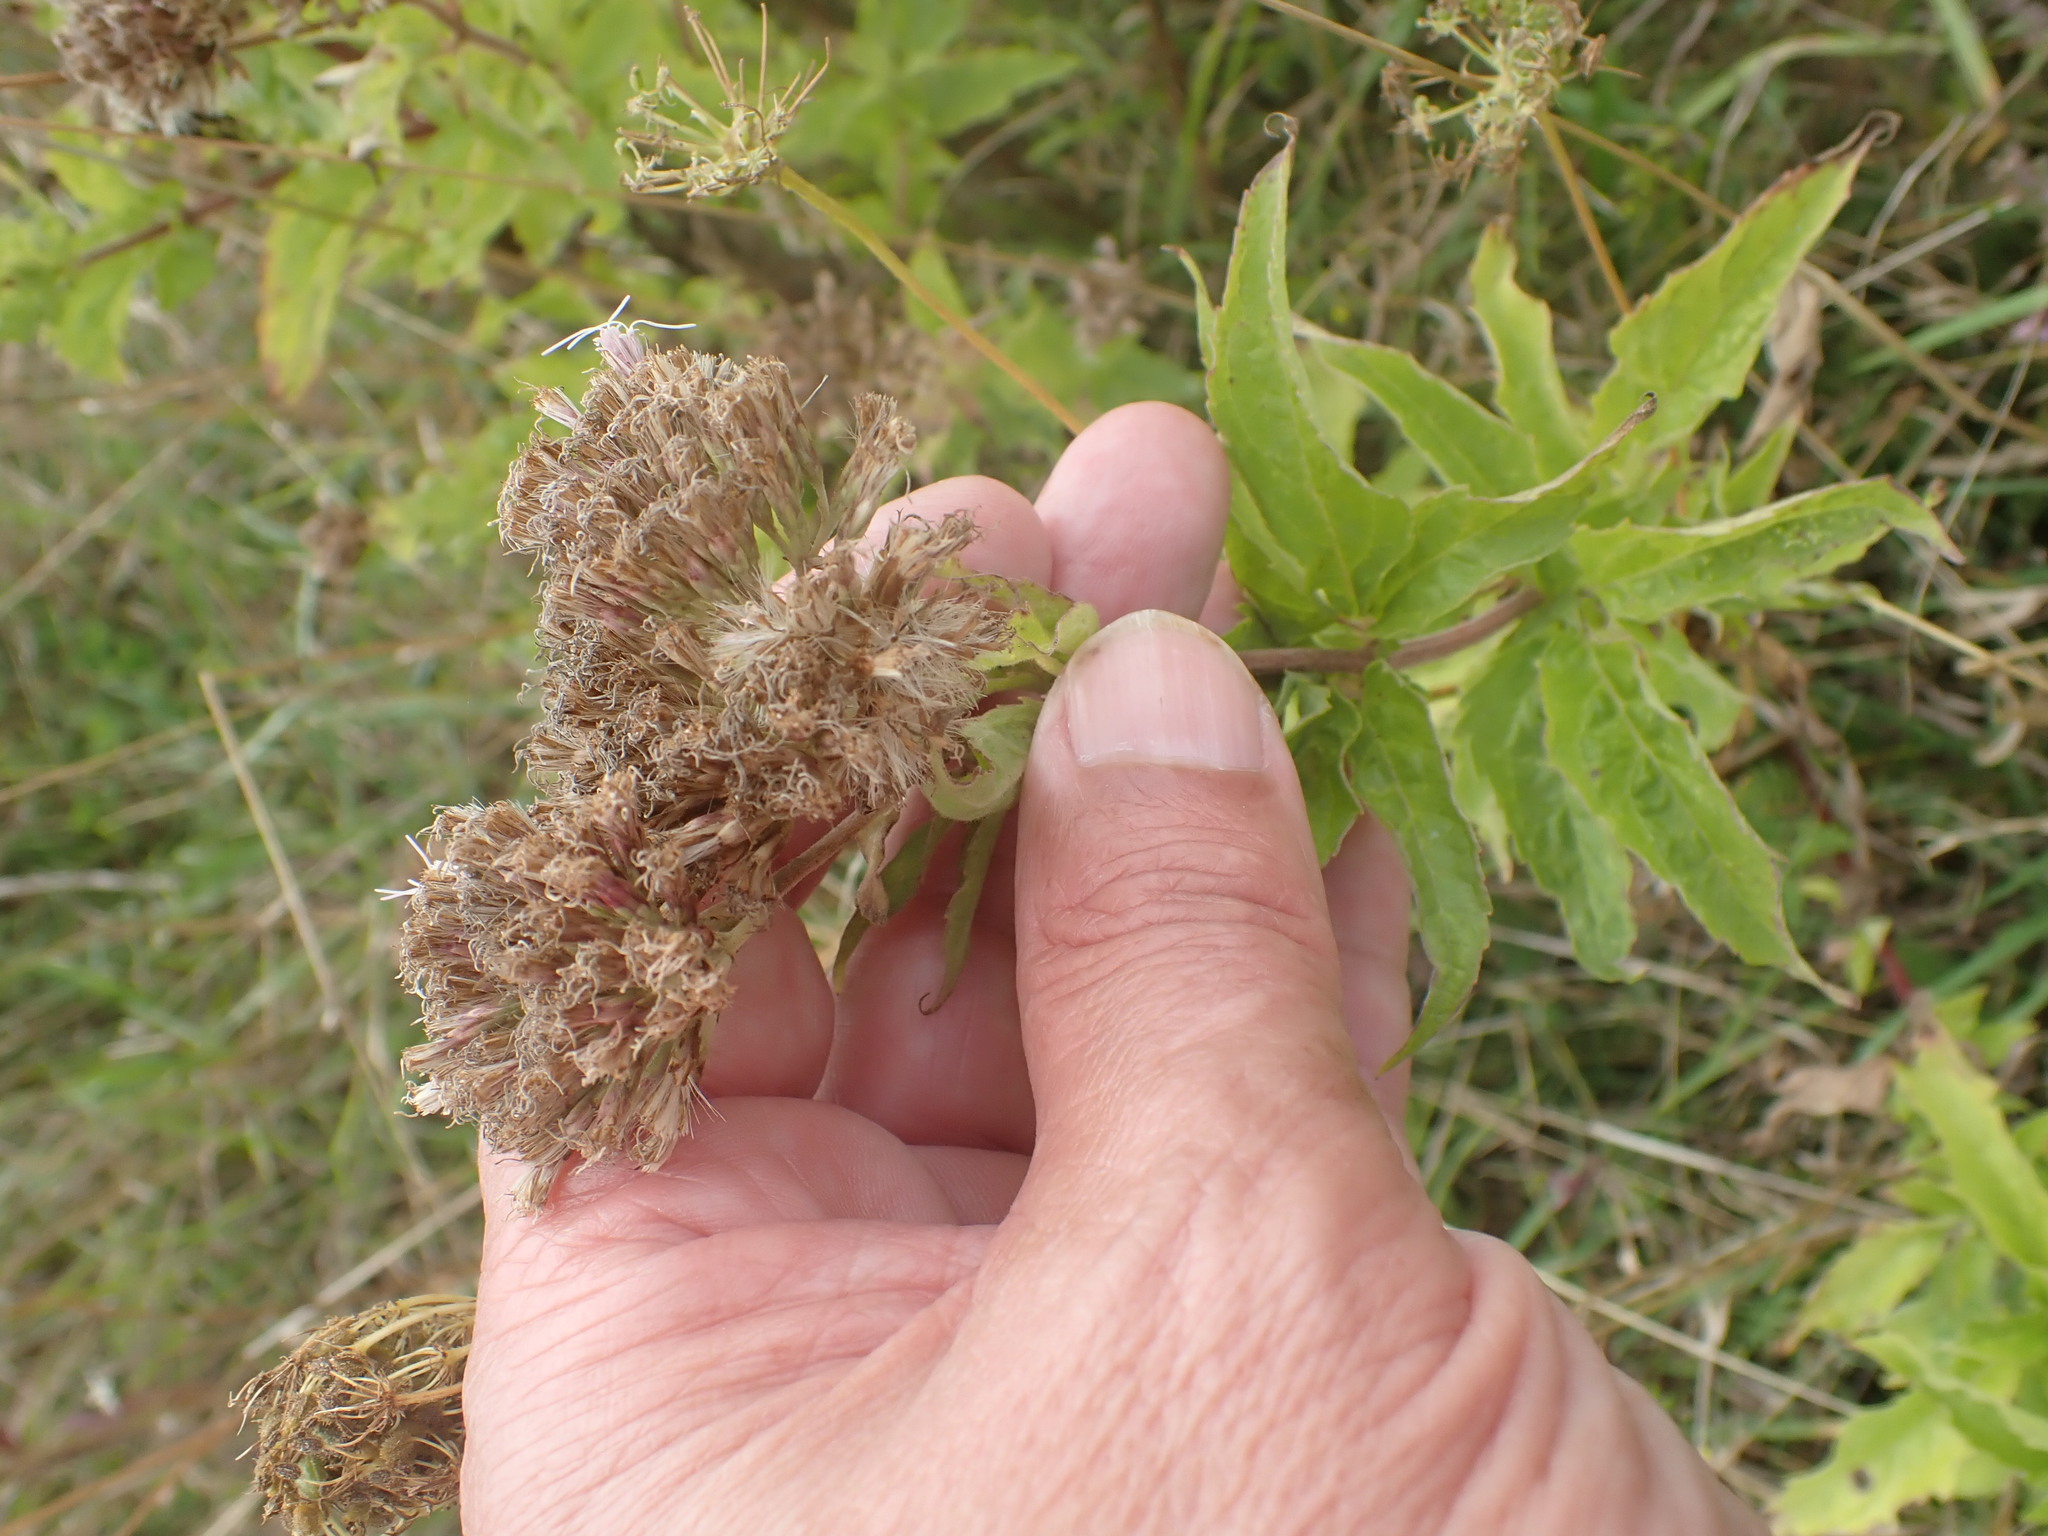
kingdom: Plantae
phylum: Tracheophyta
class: Magnoliopsida
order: Asterales
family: Asteraceae
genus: Eupatorium
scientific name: Eupatorium cannabinum
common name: Hemp-agrimony
